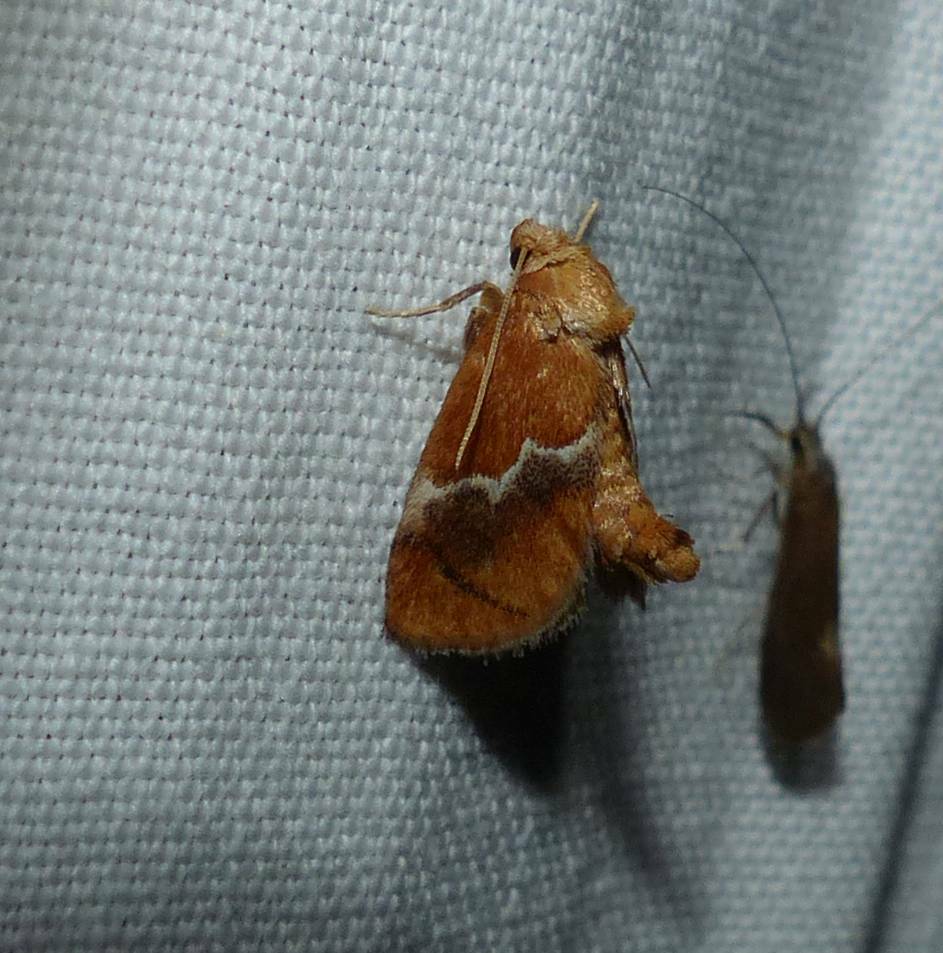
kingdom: Animalia
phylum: Arthropoda
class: Insecta
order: Lepidoptera
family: Limacodidae
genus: Lithacodes
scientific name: Lithacodes fasciola
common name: Yellow-shouldered slug moth
